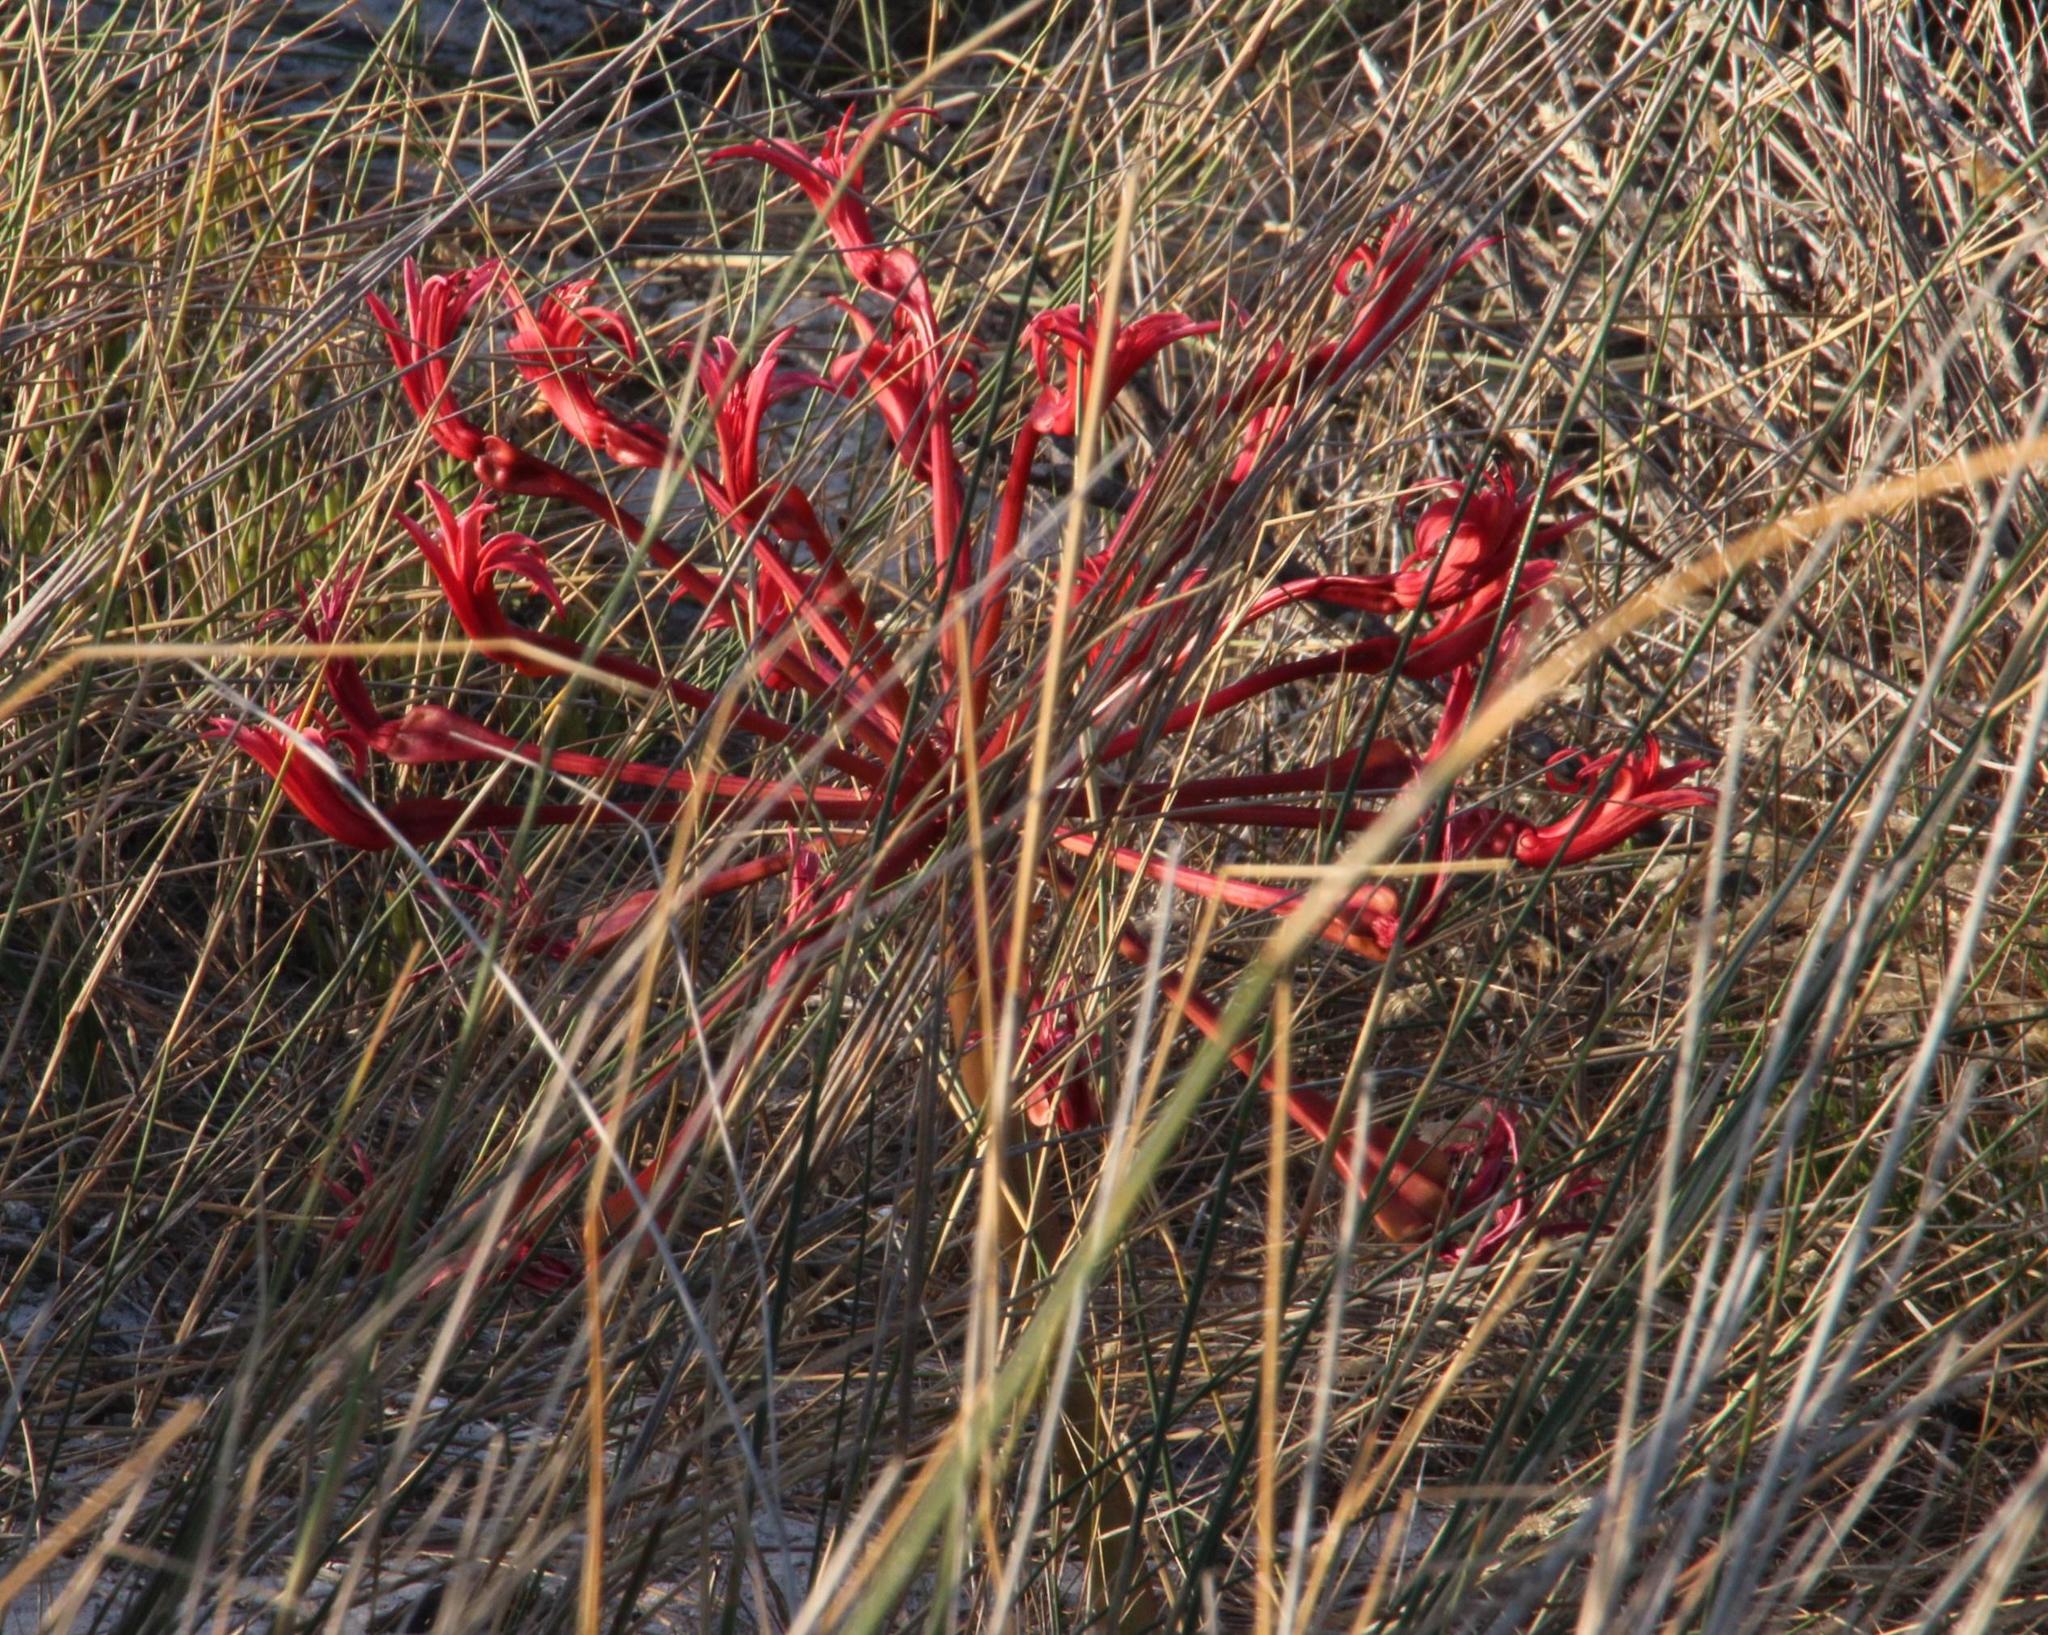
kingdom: Plantae
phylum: Tracheophyta
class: Liliopsida
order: Asparagales
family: Amaryllidaceae
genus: Brunsvigia
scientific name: Brunsvigia orientalis
